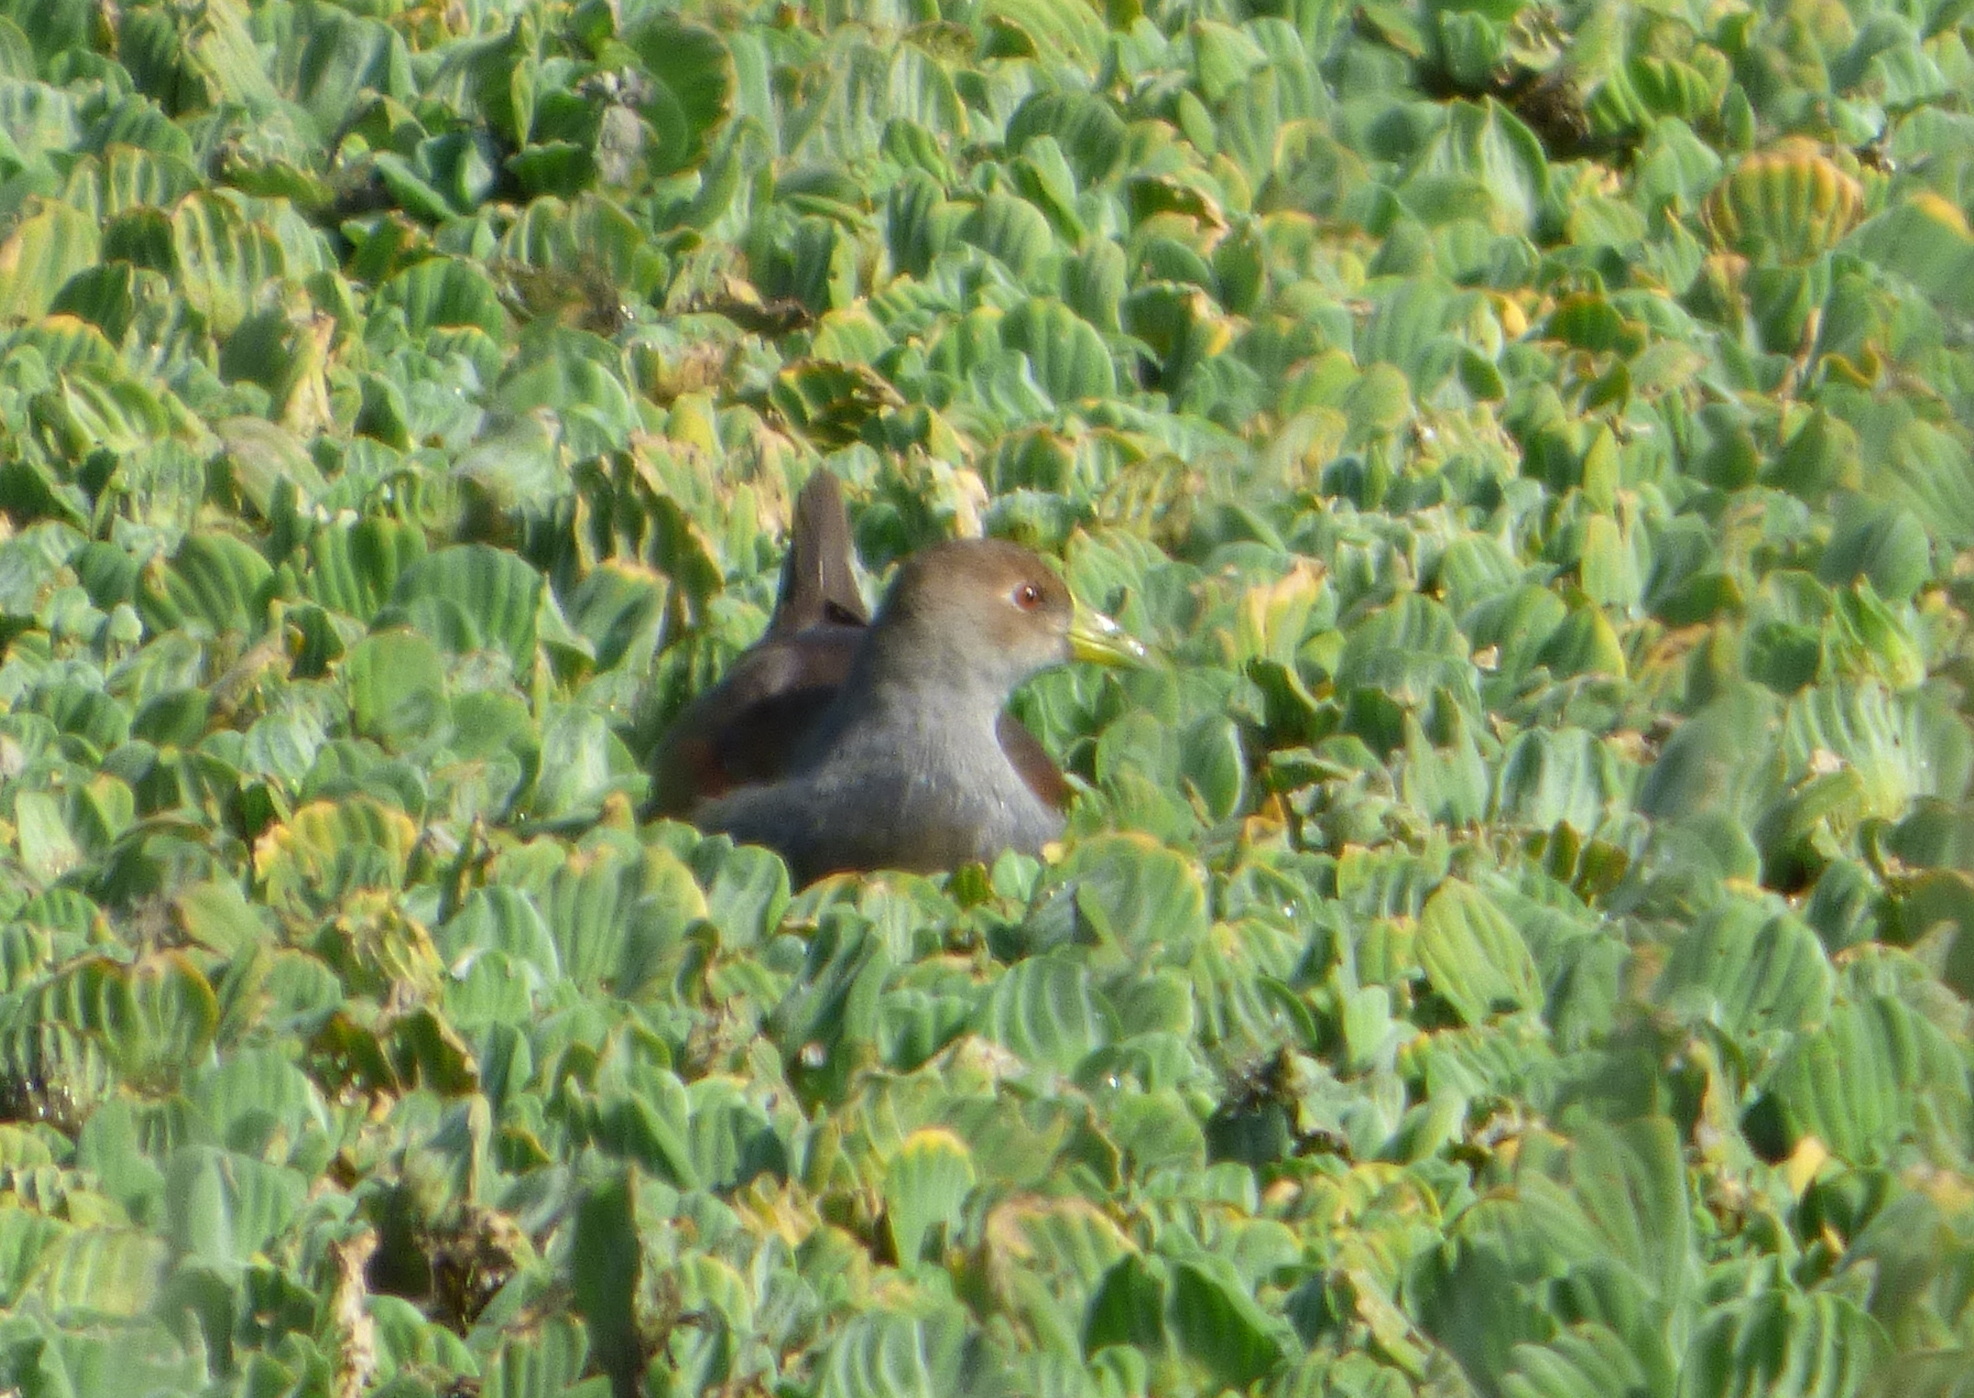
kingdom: Animalia
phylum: Chordata
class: Aves
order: Gruiformes
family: Rallidae
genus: Gallinula
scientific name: Gallinula melanops
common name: Spot-flanked gallinule
